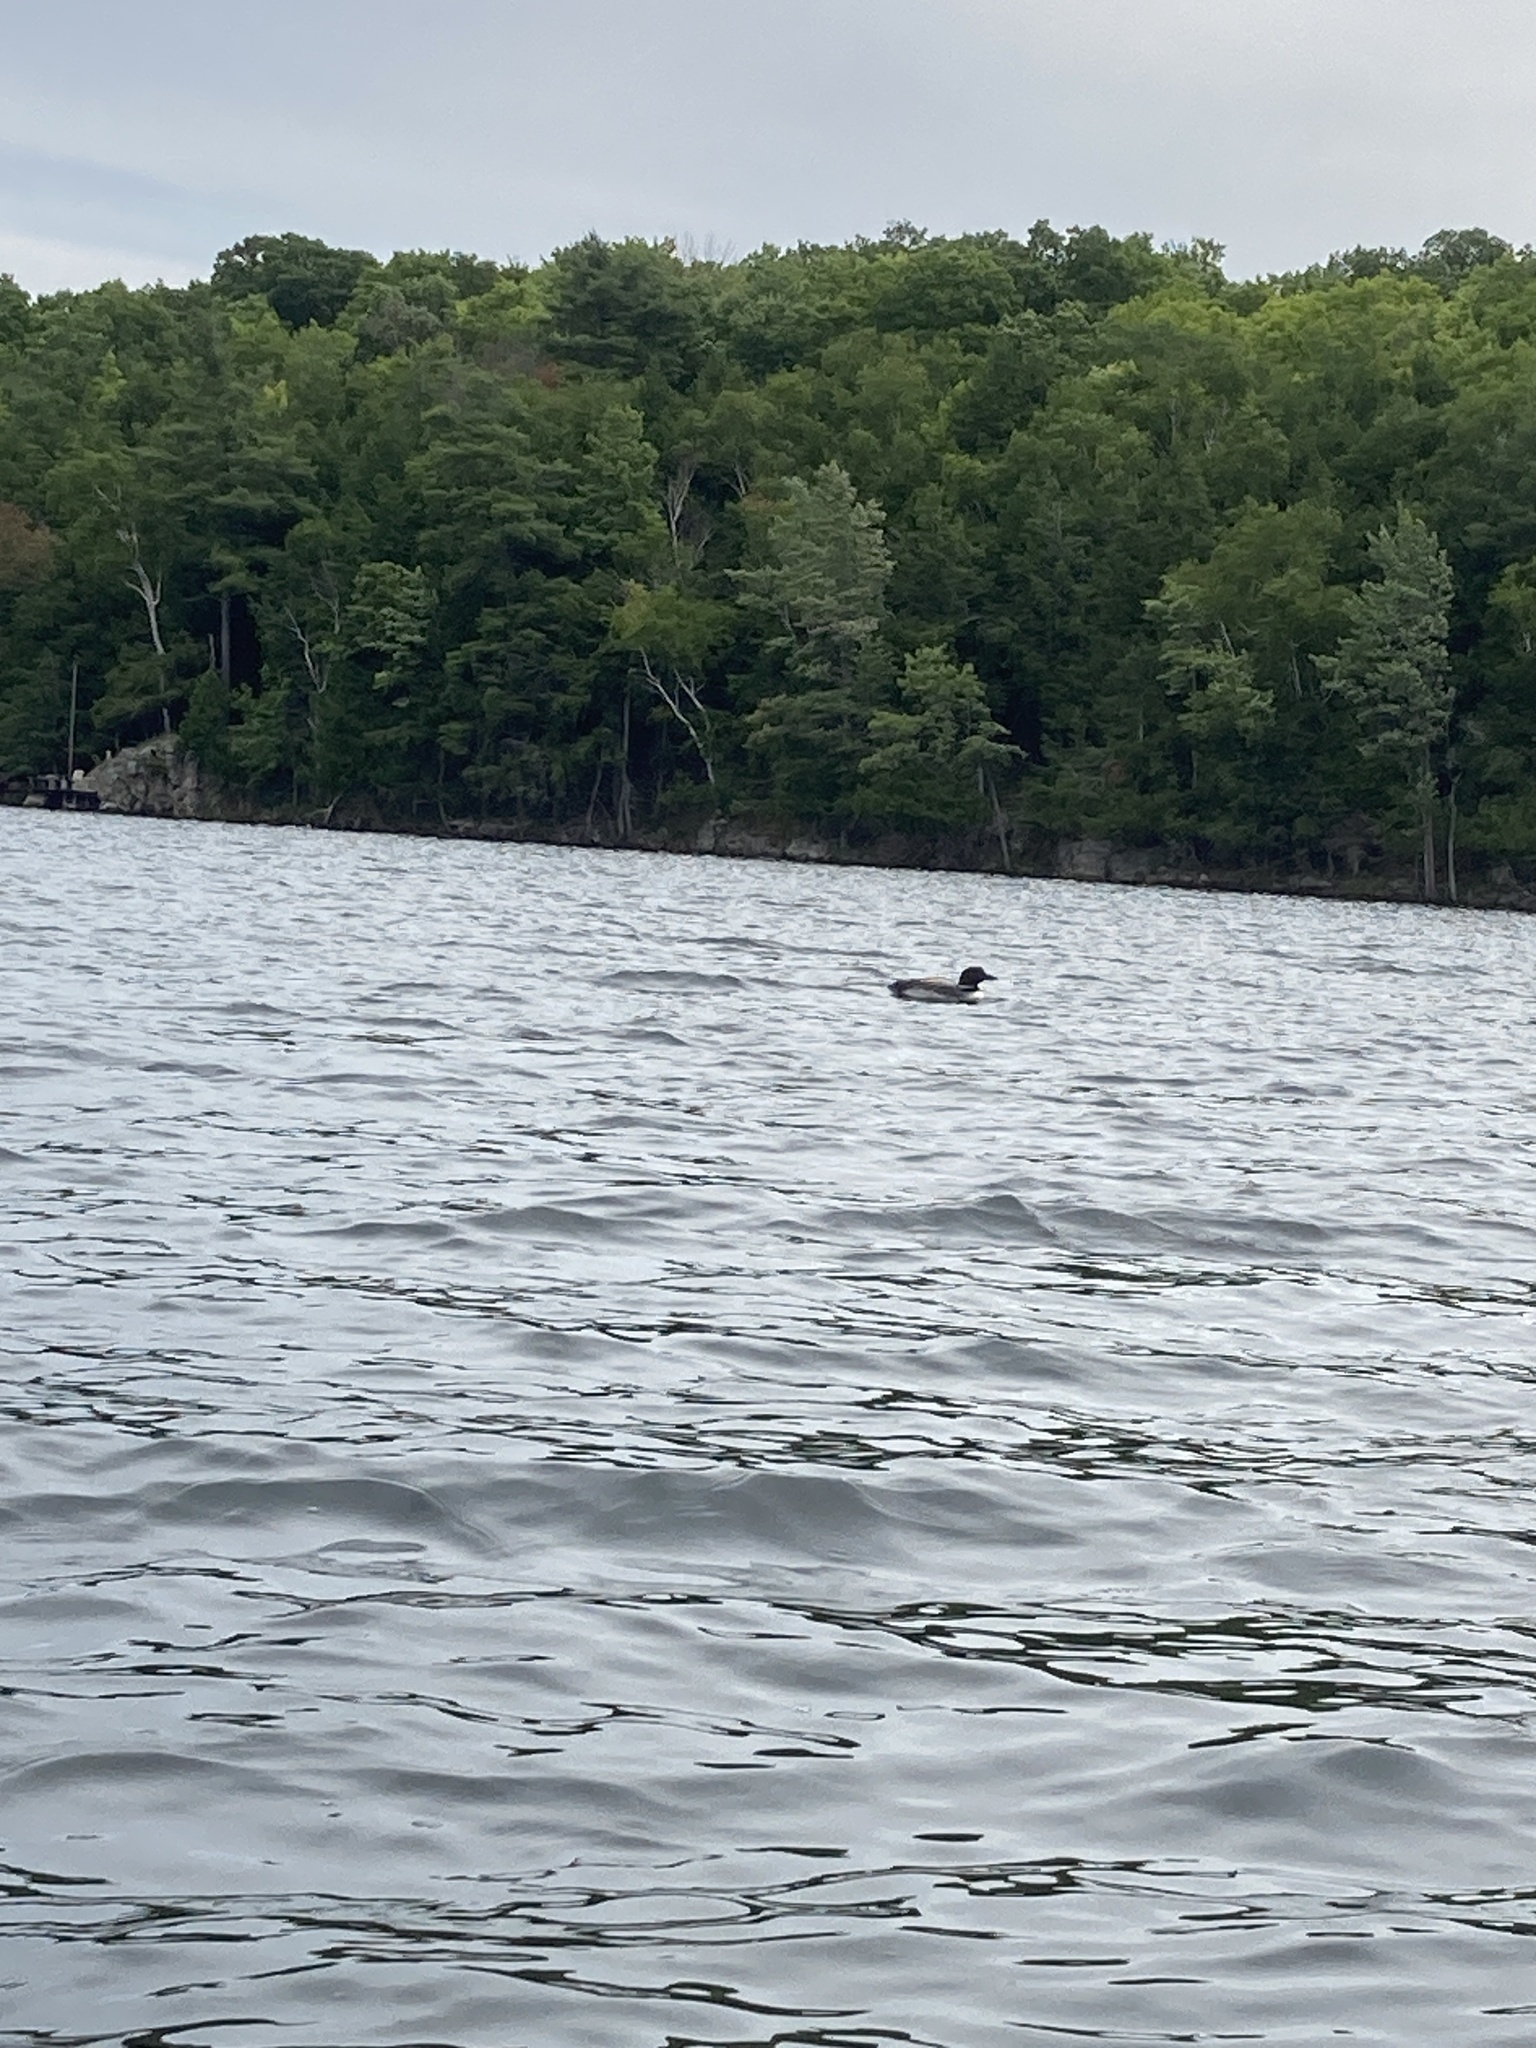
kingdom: Animalia
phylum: Chordata
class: Aves
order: Gaviiformes
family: Gaviidae
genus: Gavia
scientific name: Gavia immer
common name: Common loon
